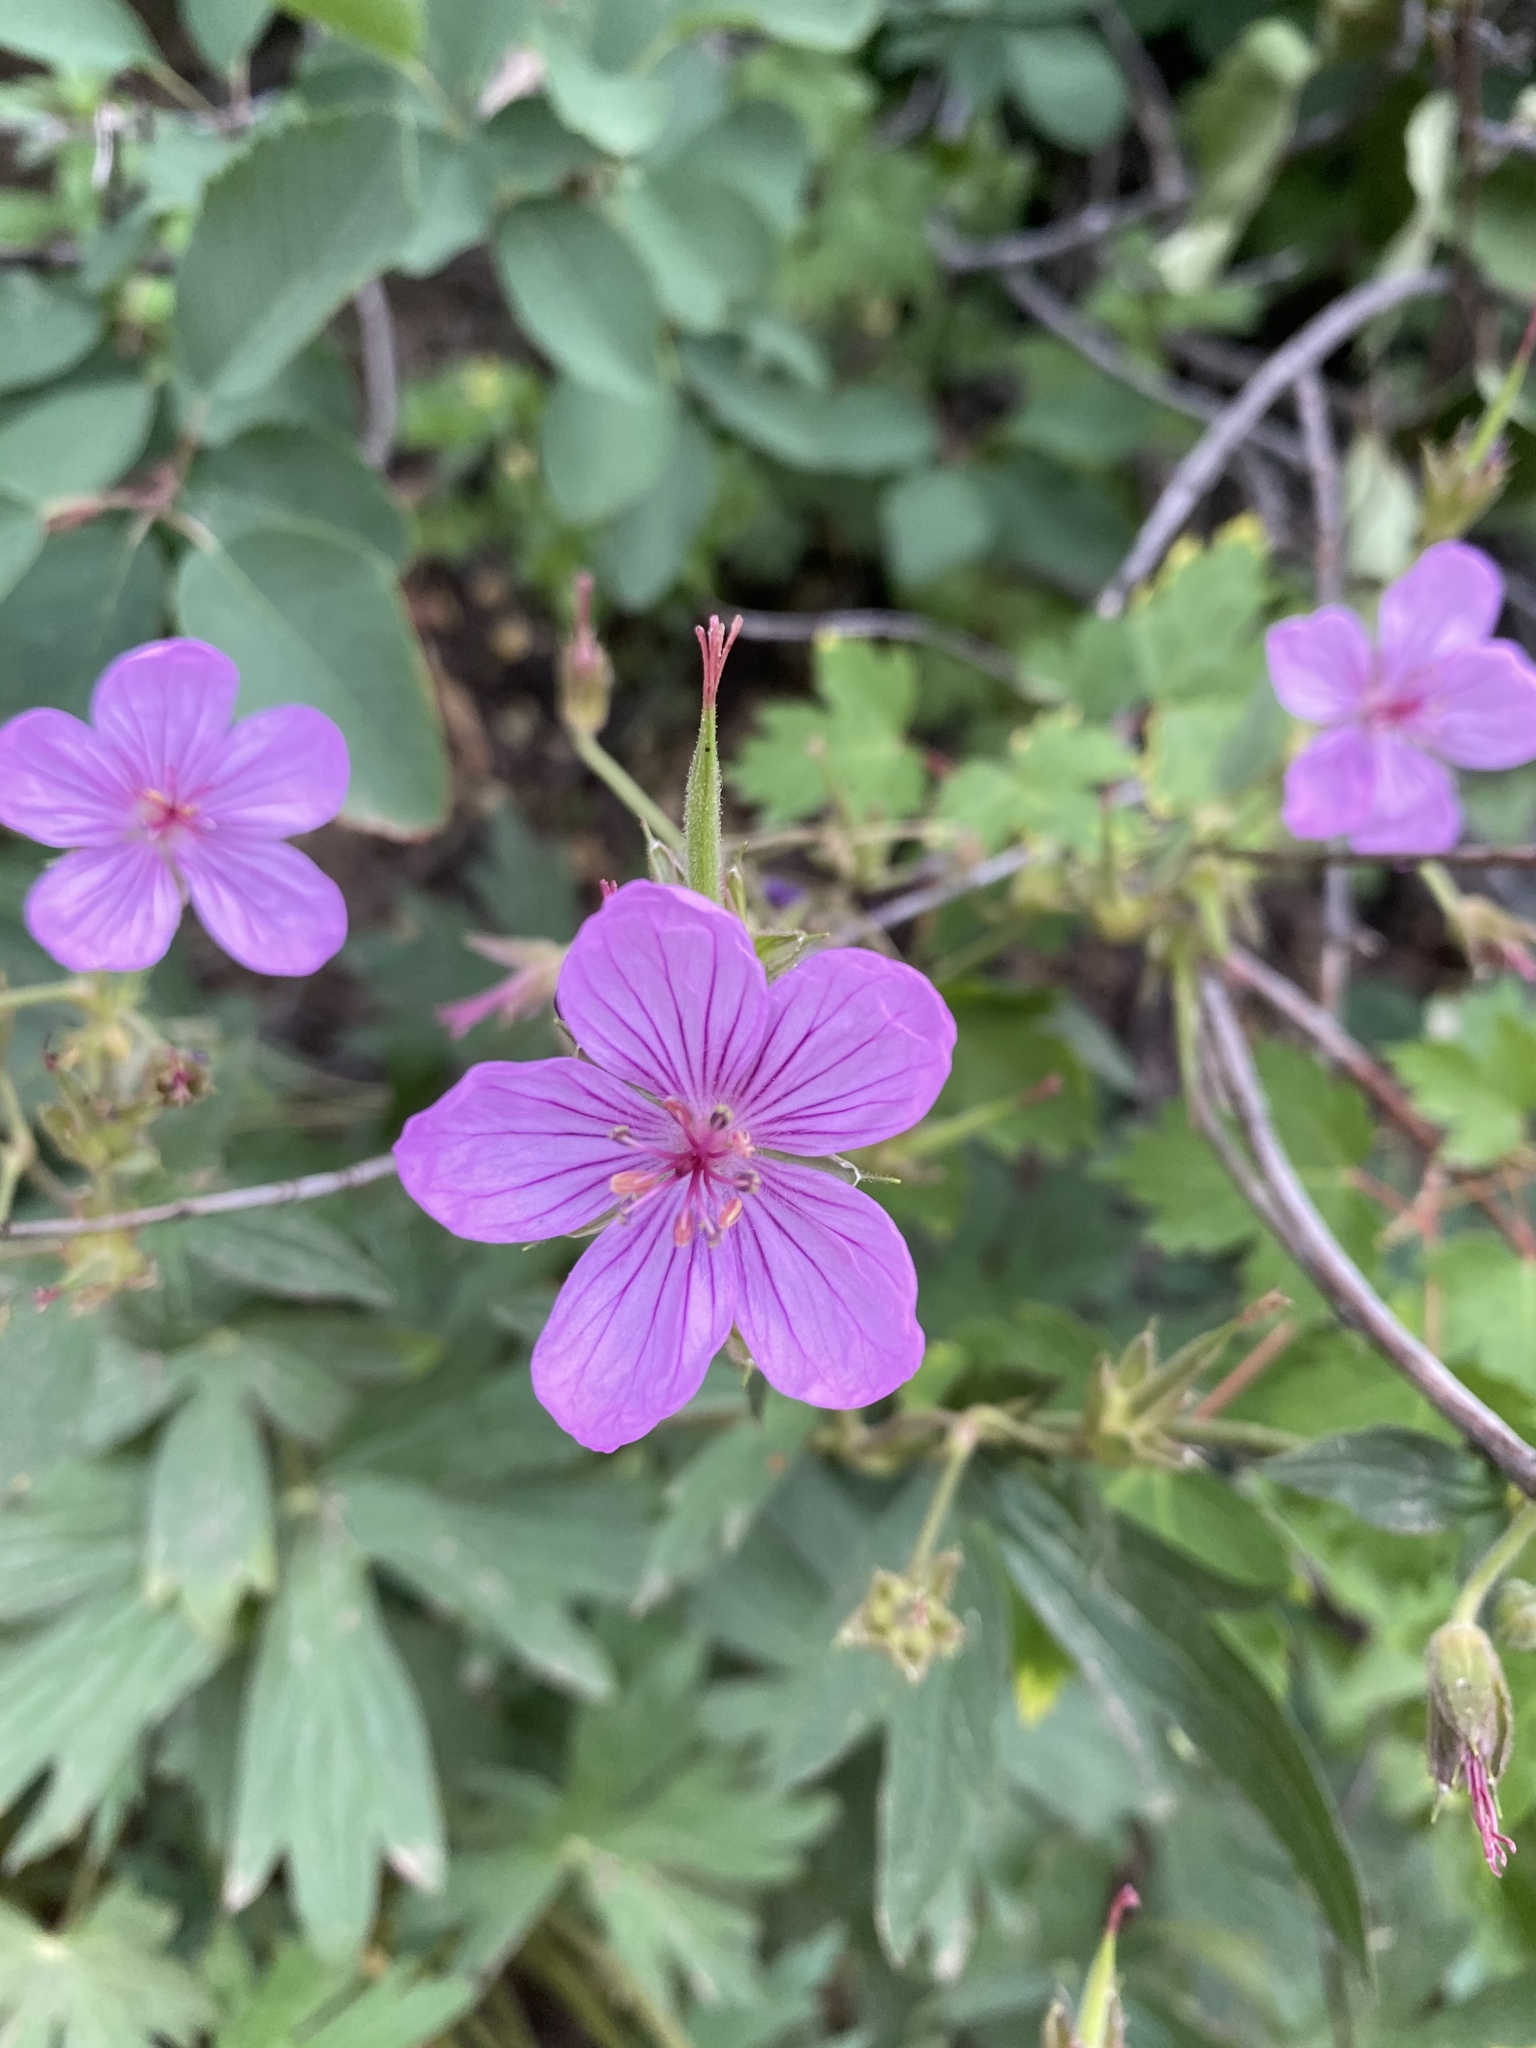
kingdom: Plantae
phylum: Tracheophyta
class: Magnoliopsida
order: Geraniales
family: Geraniaceae
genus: Geranium
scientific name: Geranium viscosissimum
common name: Purple geranium
